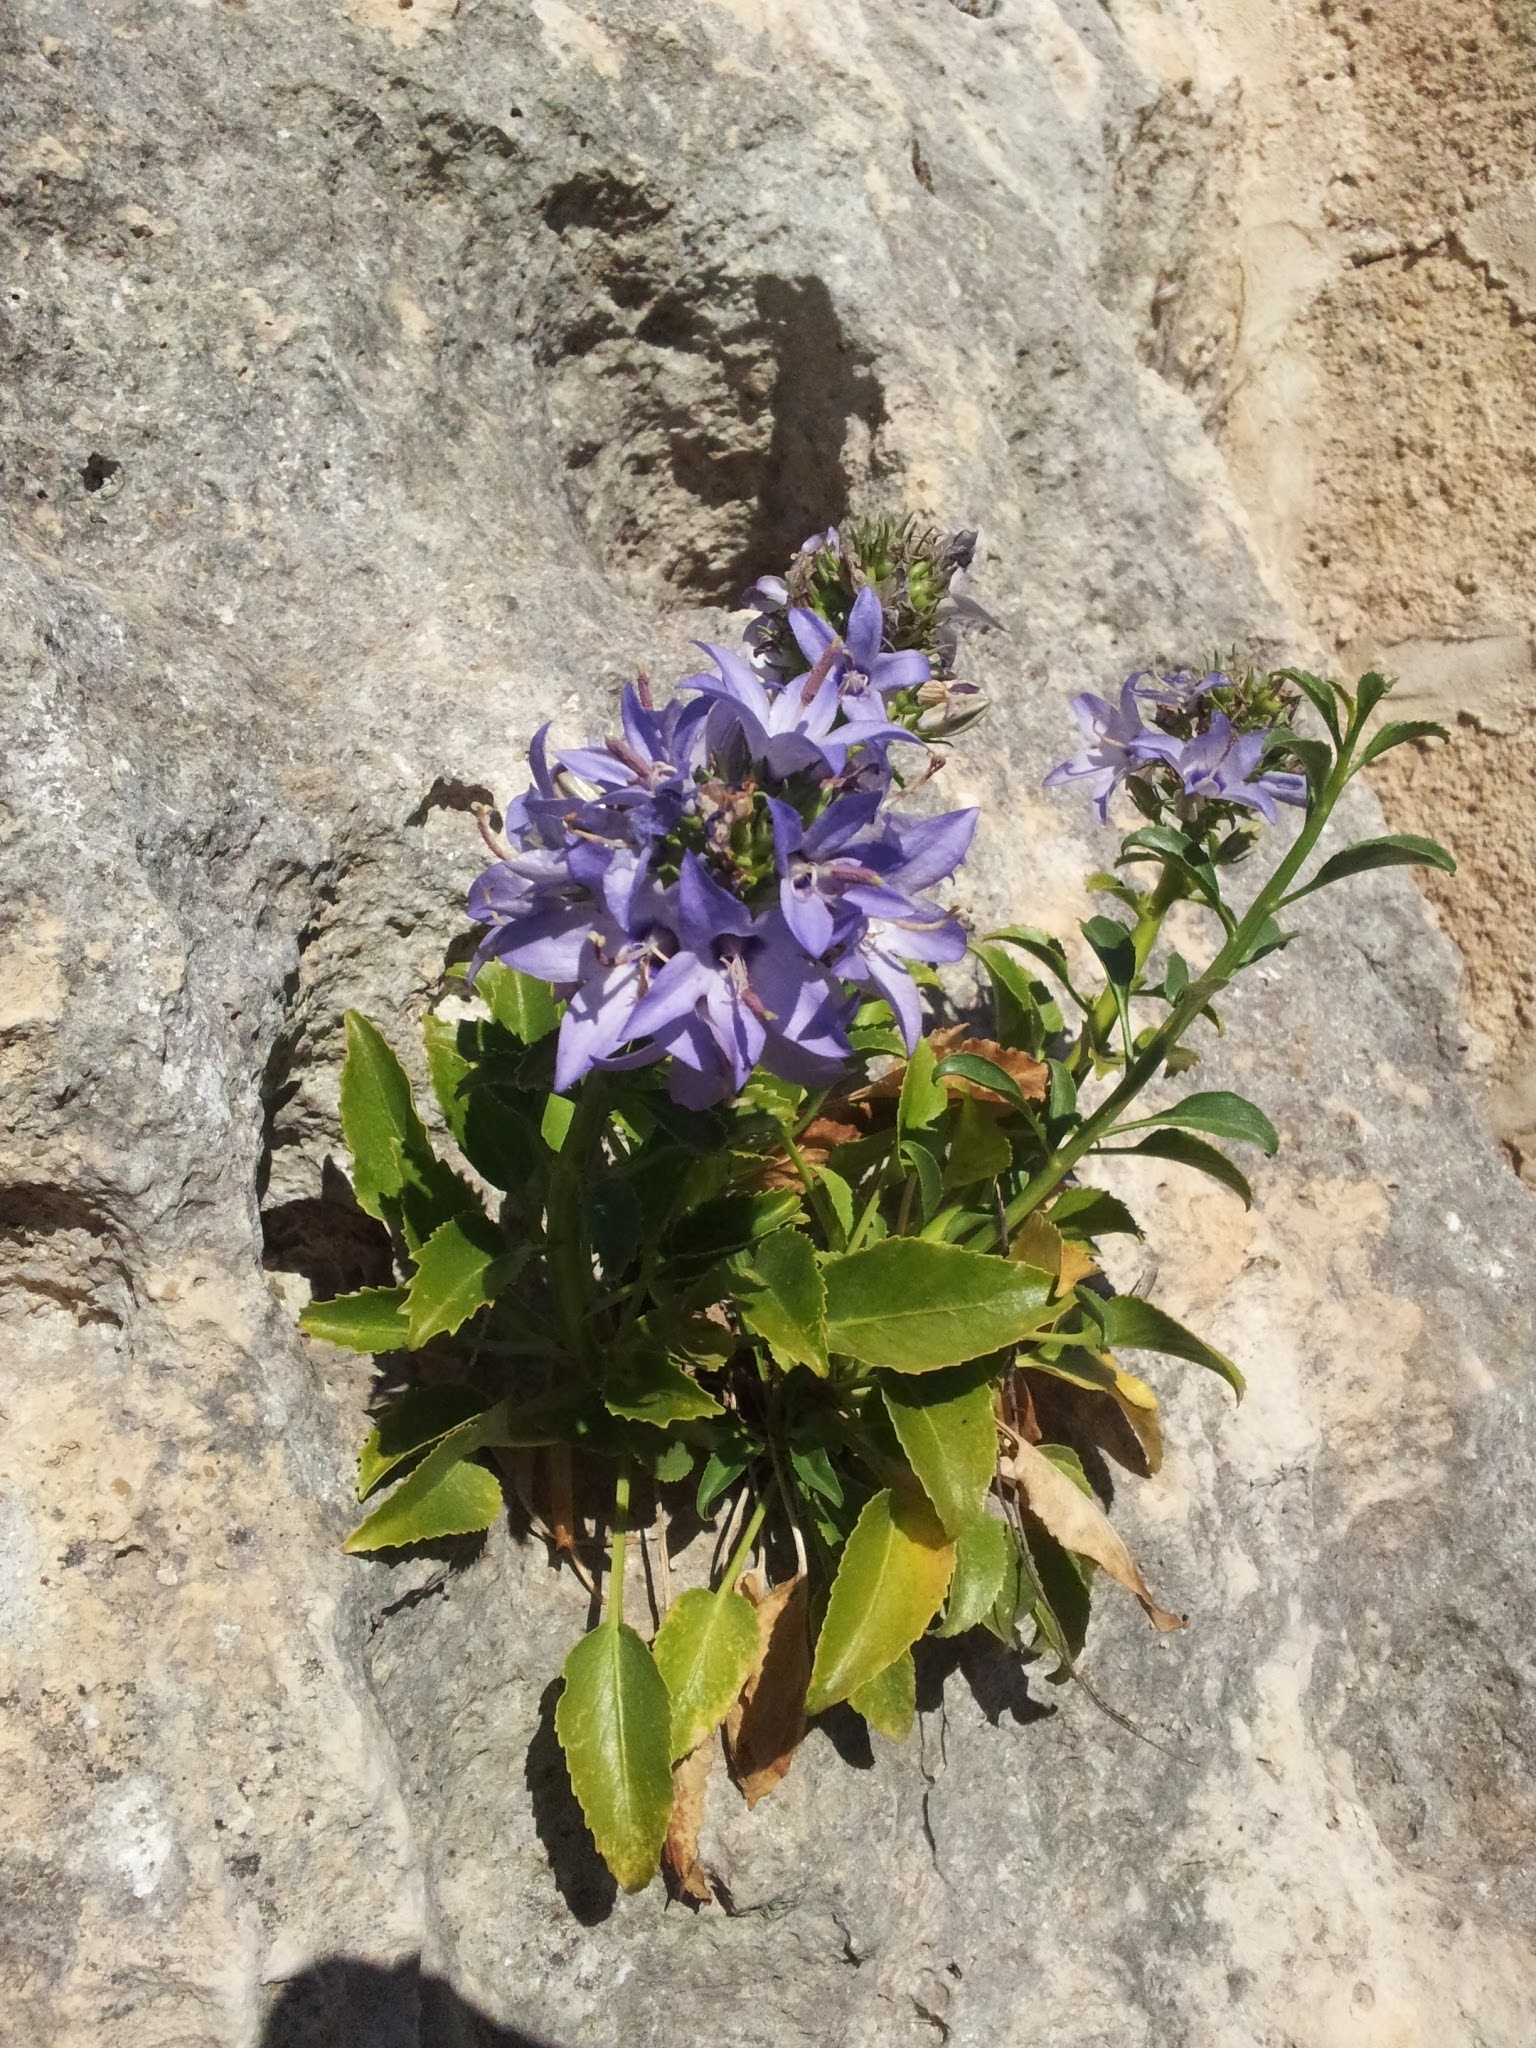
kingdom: Plantae
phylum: Tracheophyta
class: Magnoliopsida
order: Asterales
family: Campanulaceae
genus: Campanula
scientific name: Campanula versicolor
